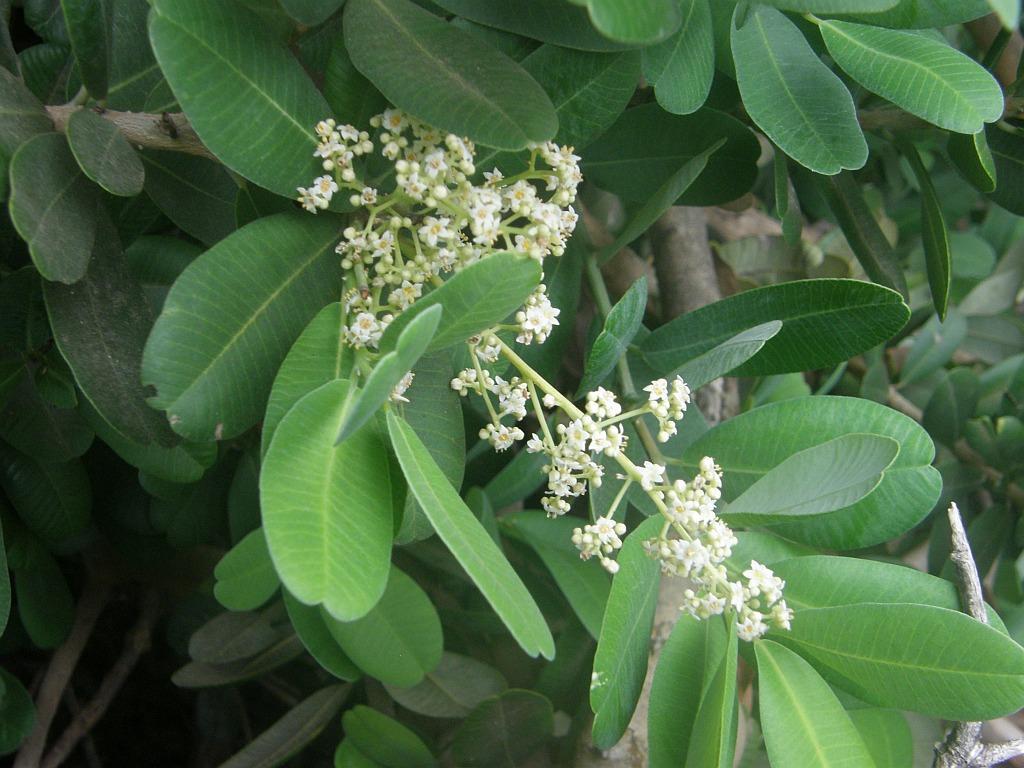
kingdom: Plantae
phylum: Tracheophyta
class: Magnoliopsida
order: Sapindales
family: Anacardiaceae
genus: Heeria
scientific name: Heeria argentea
